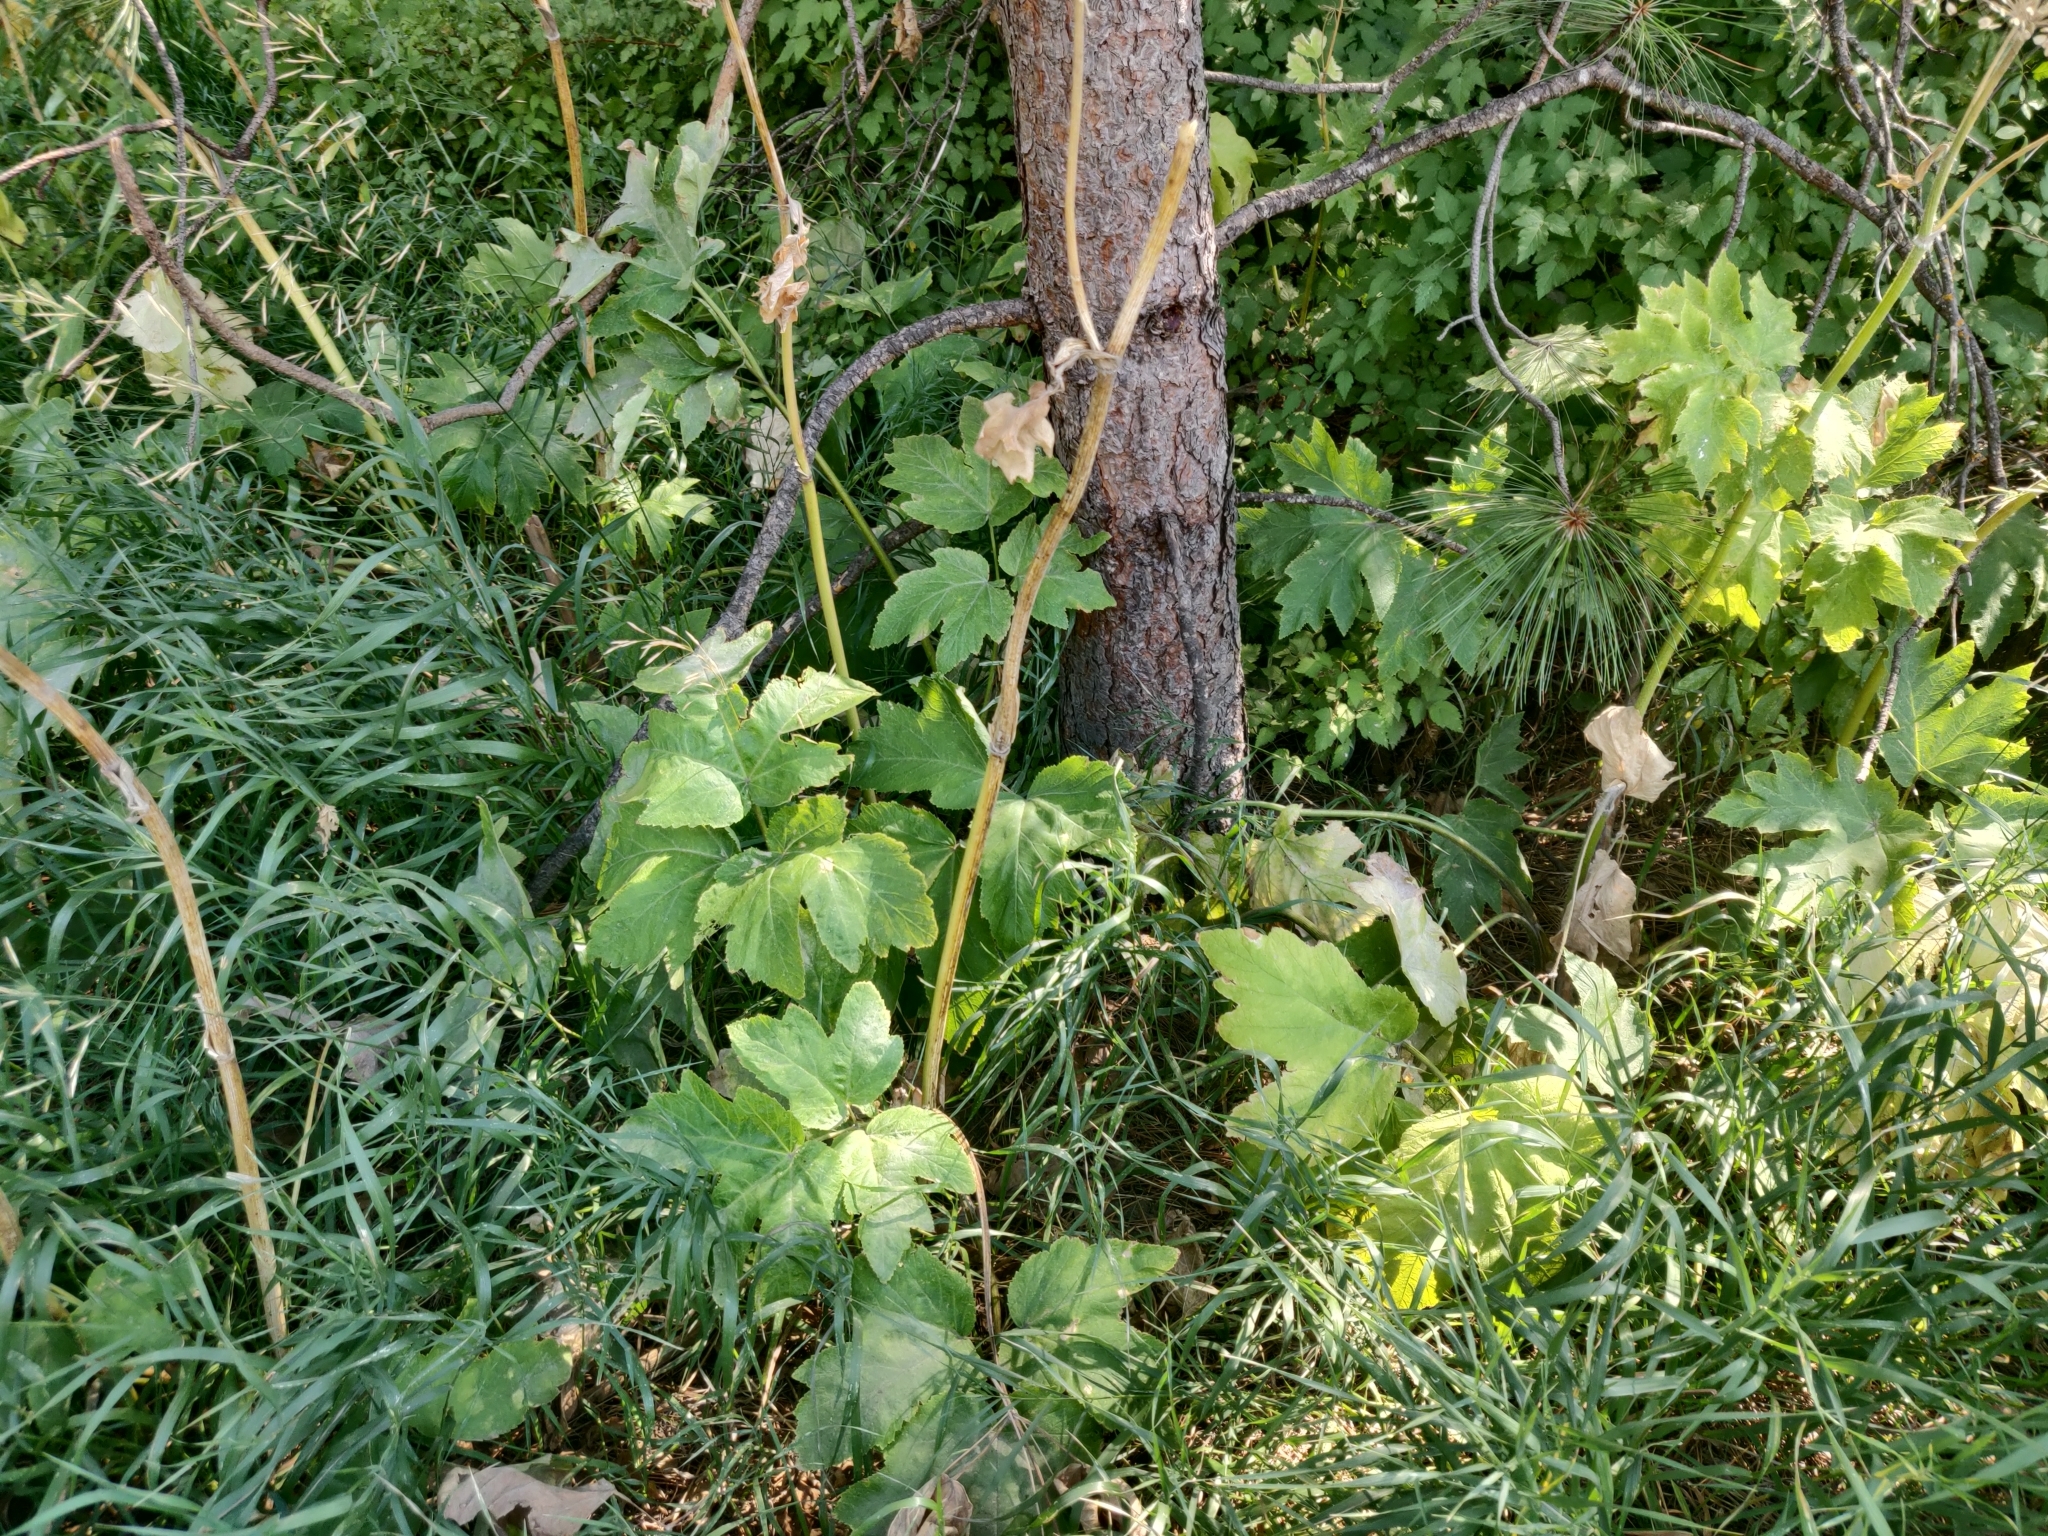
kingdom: Plantae
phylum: Tracheophyta
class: Magnoliopsida
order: Apiales
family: Apiaceae
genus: Heracleum
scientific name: Heracleum maximum
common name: American cow parsnip
